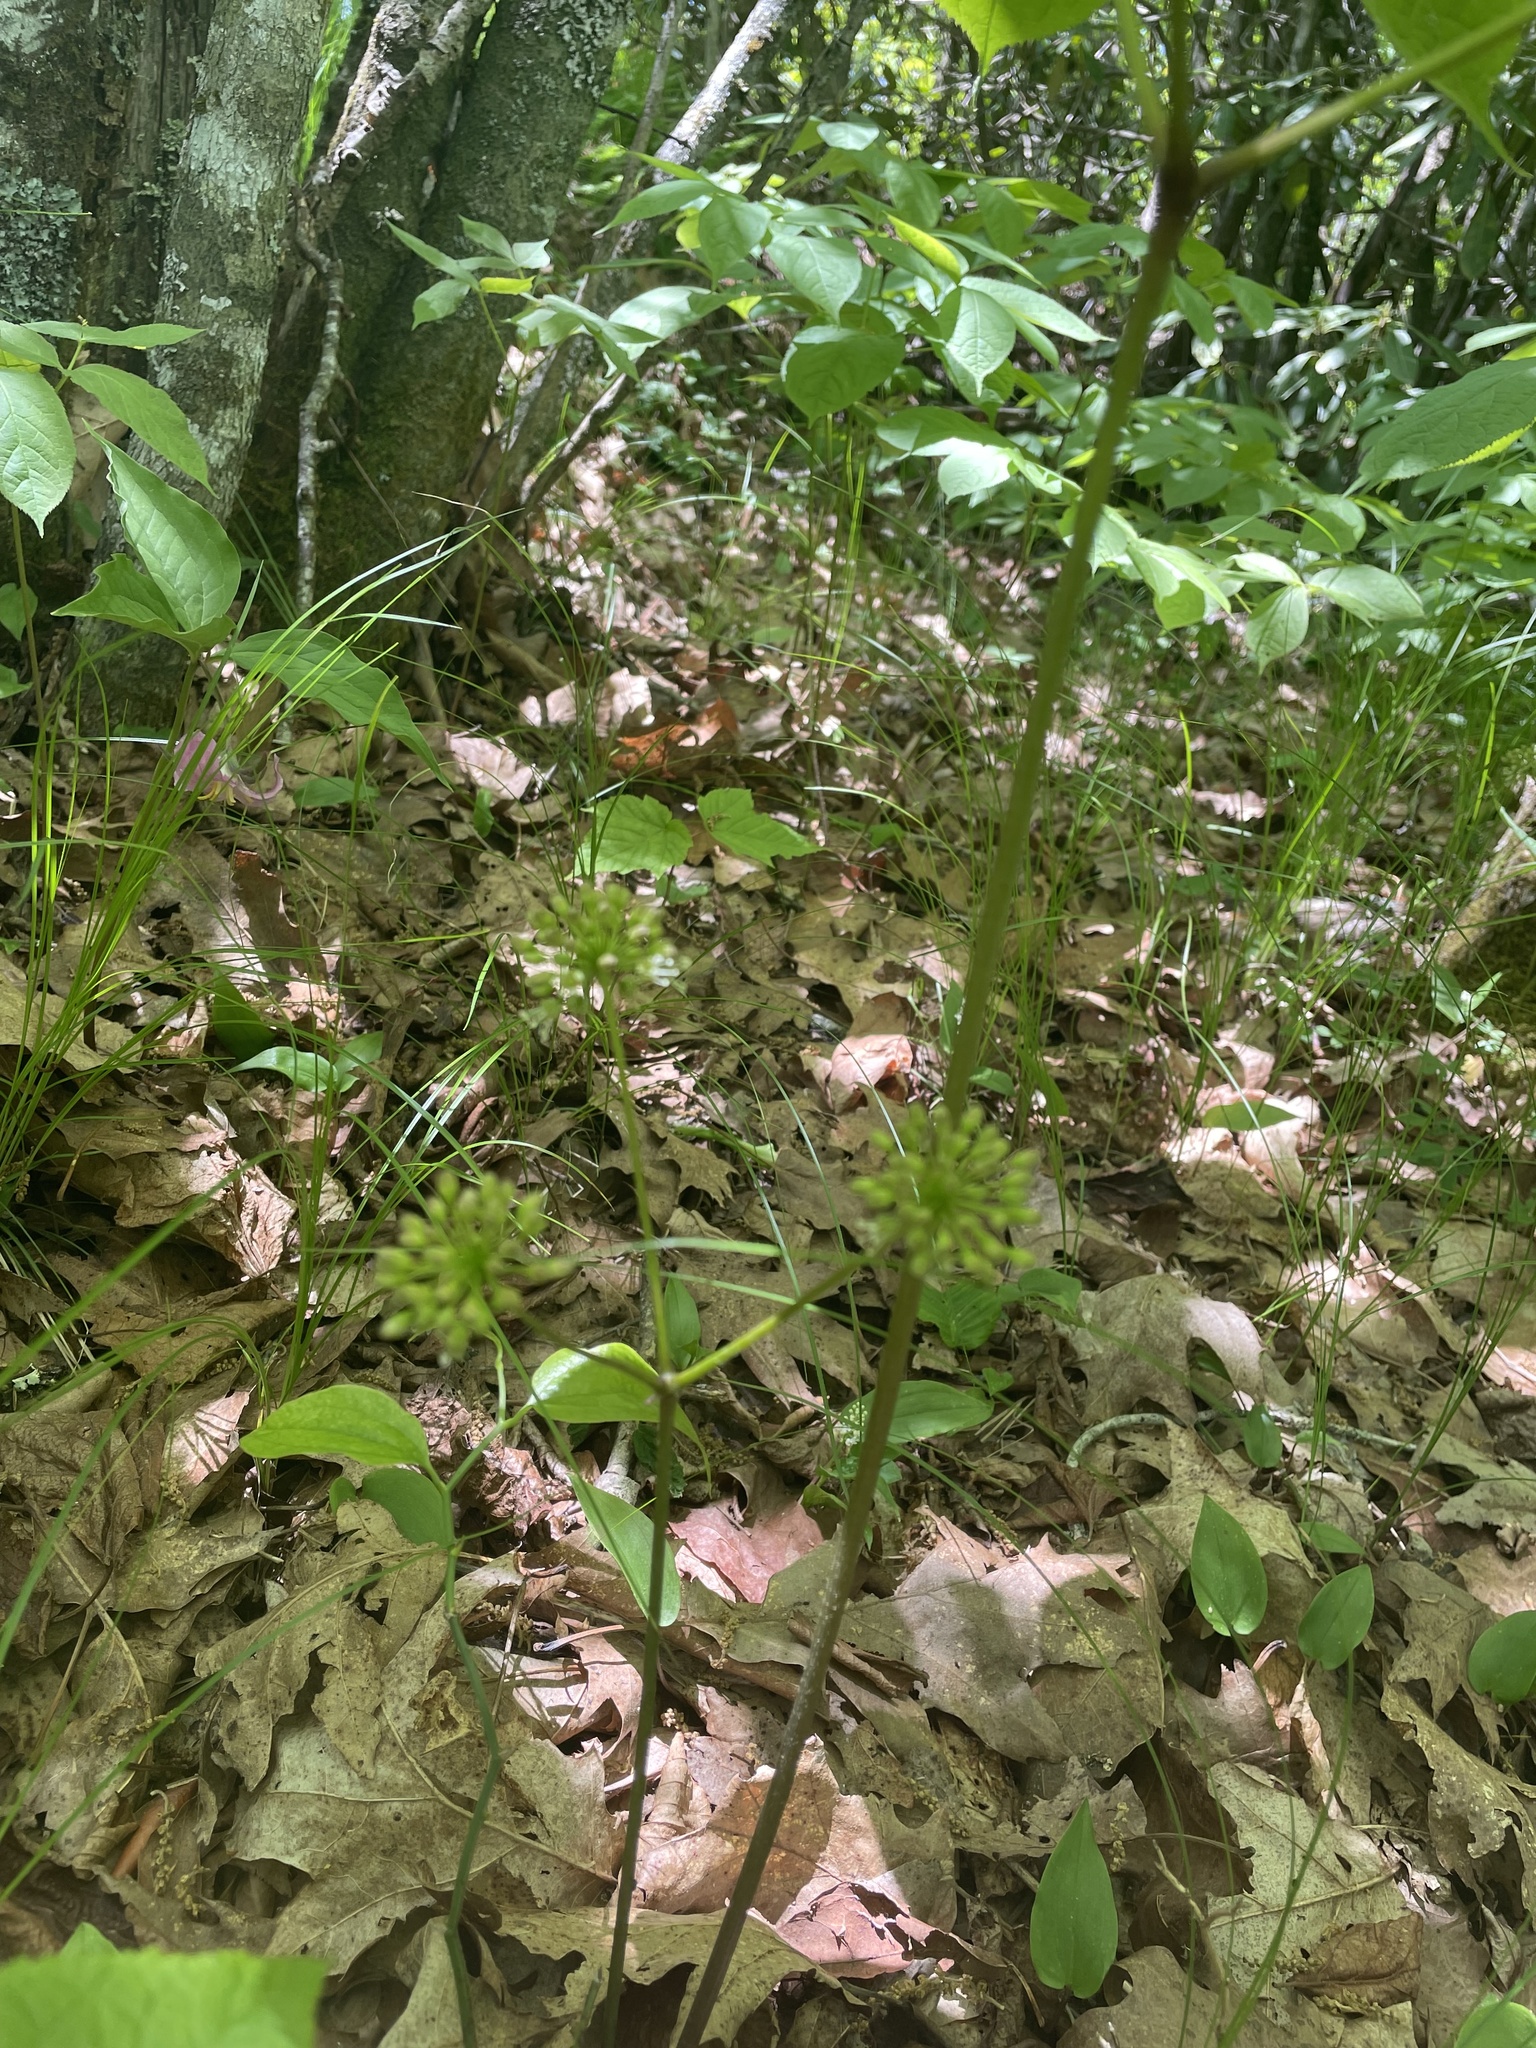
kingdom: Plantae
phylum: Tracheophyta
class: Magnoliopsida
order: Apiales
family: Araliaceae
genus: Aralia
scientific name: Aralia nudicaulis
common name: Wild sarsaparilla
